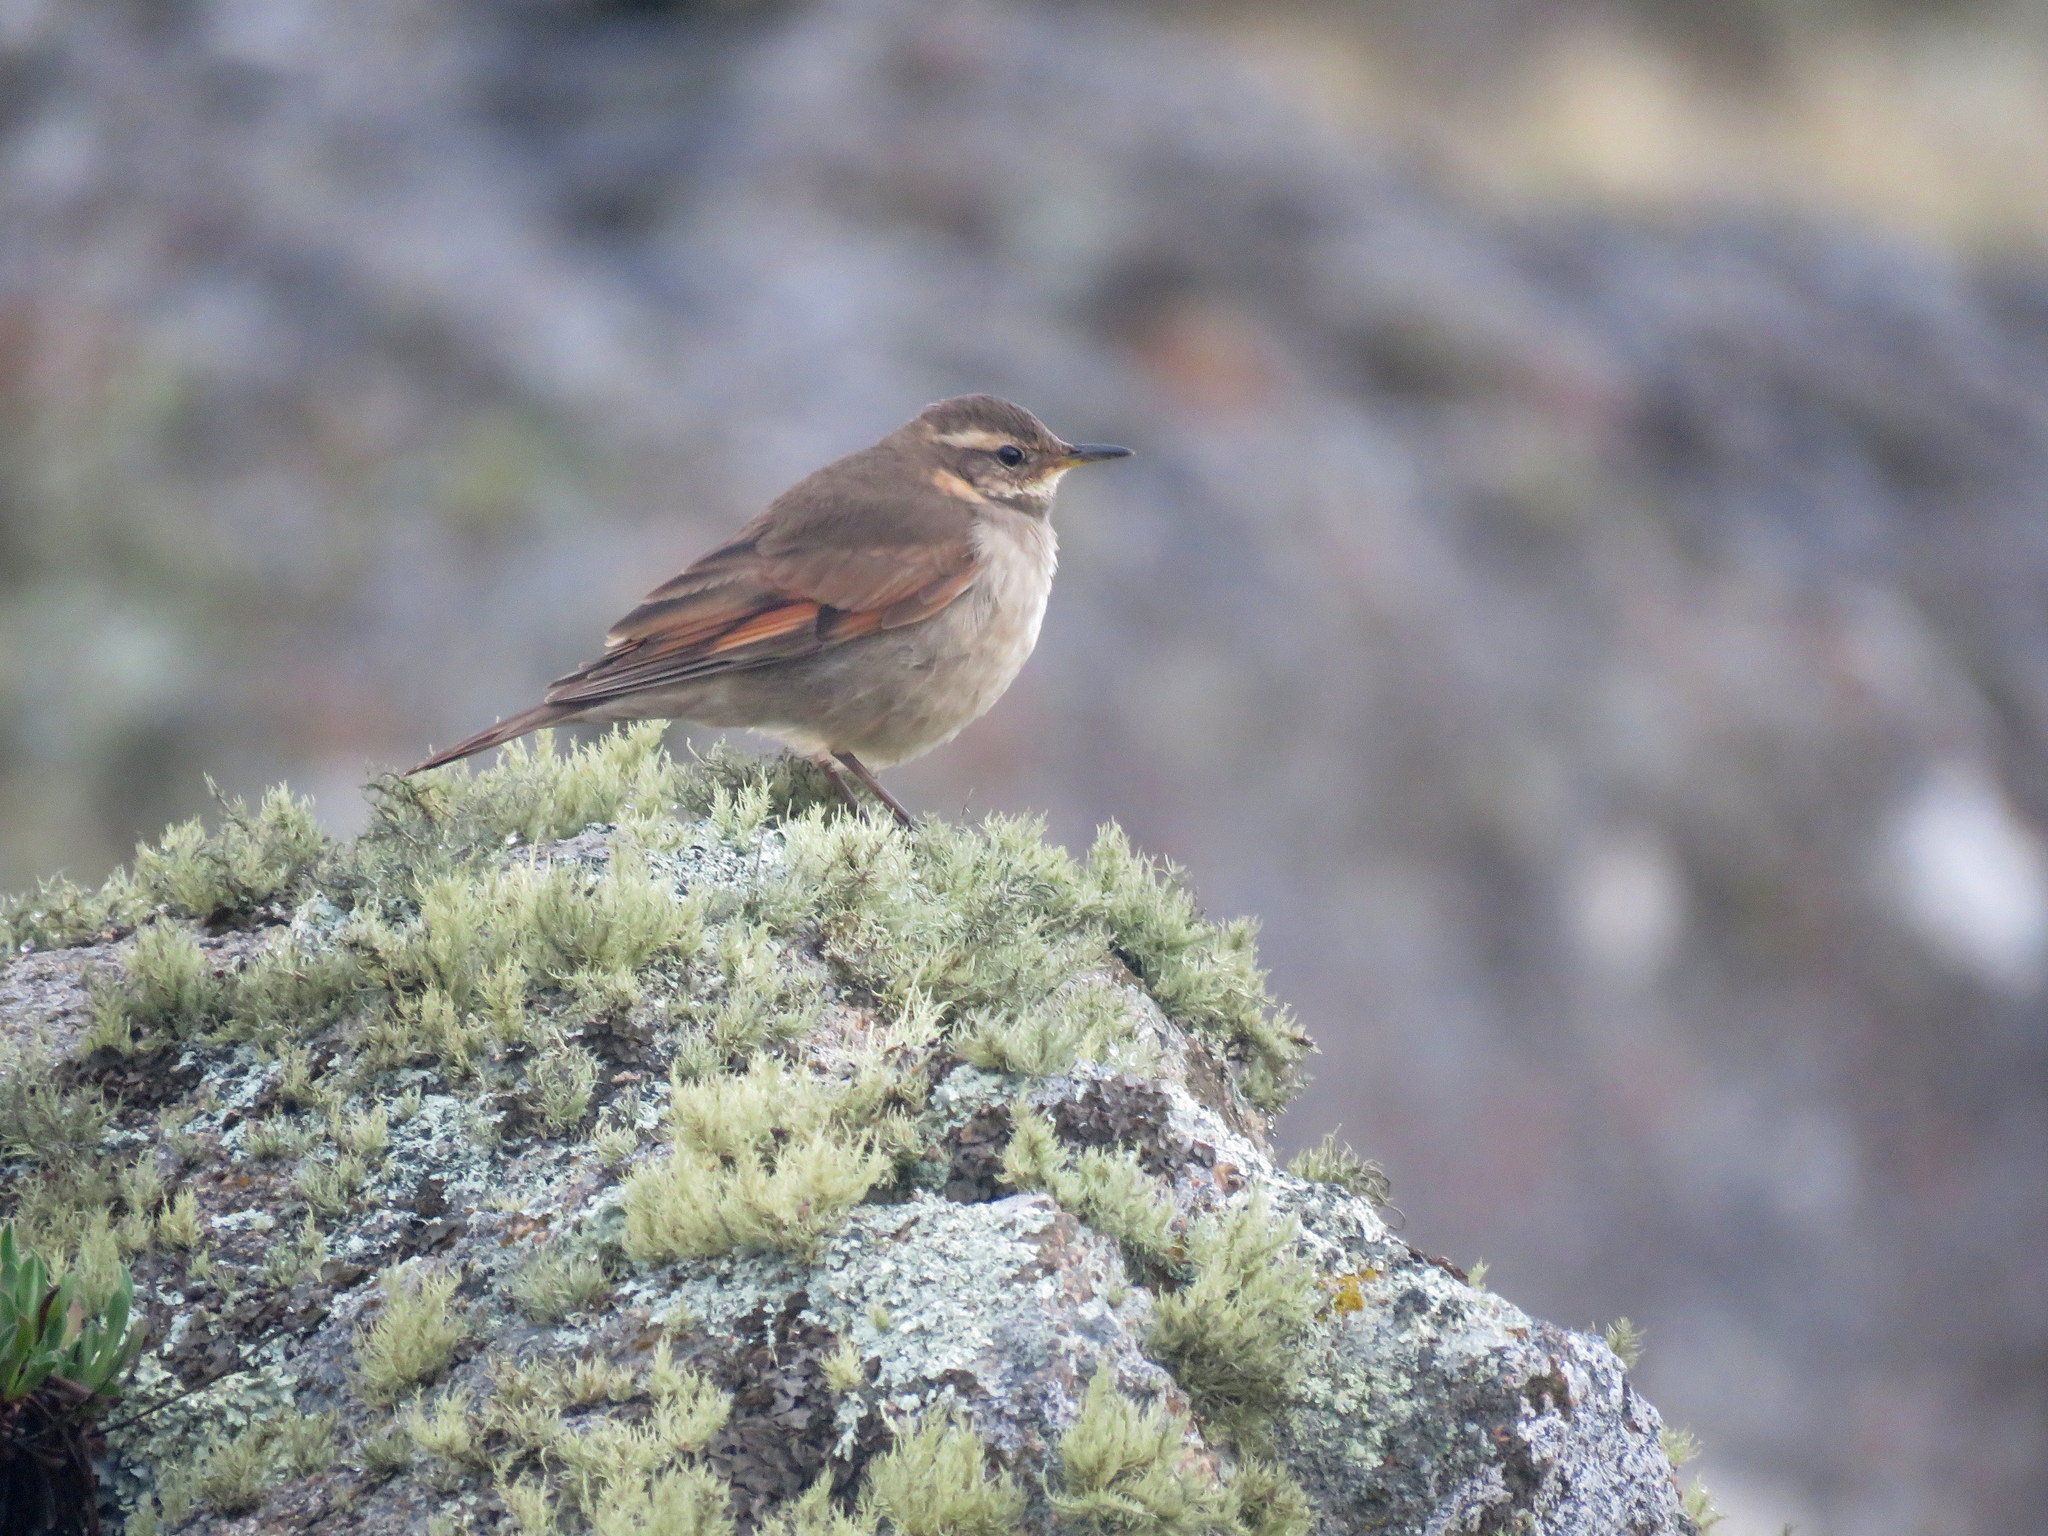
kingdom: Animalia
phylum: Chordata
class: Aves
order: Passeriformes
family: Furnariidae
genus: Cinclodes
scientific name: Cinclodes comechingonus
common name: Cordoba cinclodes
